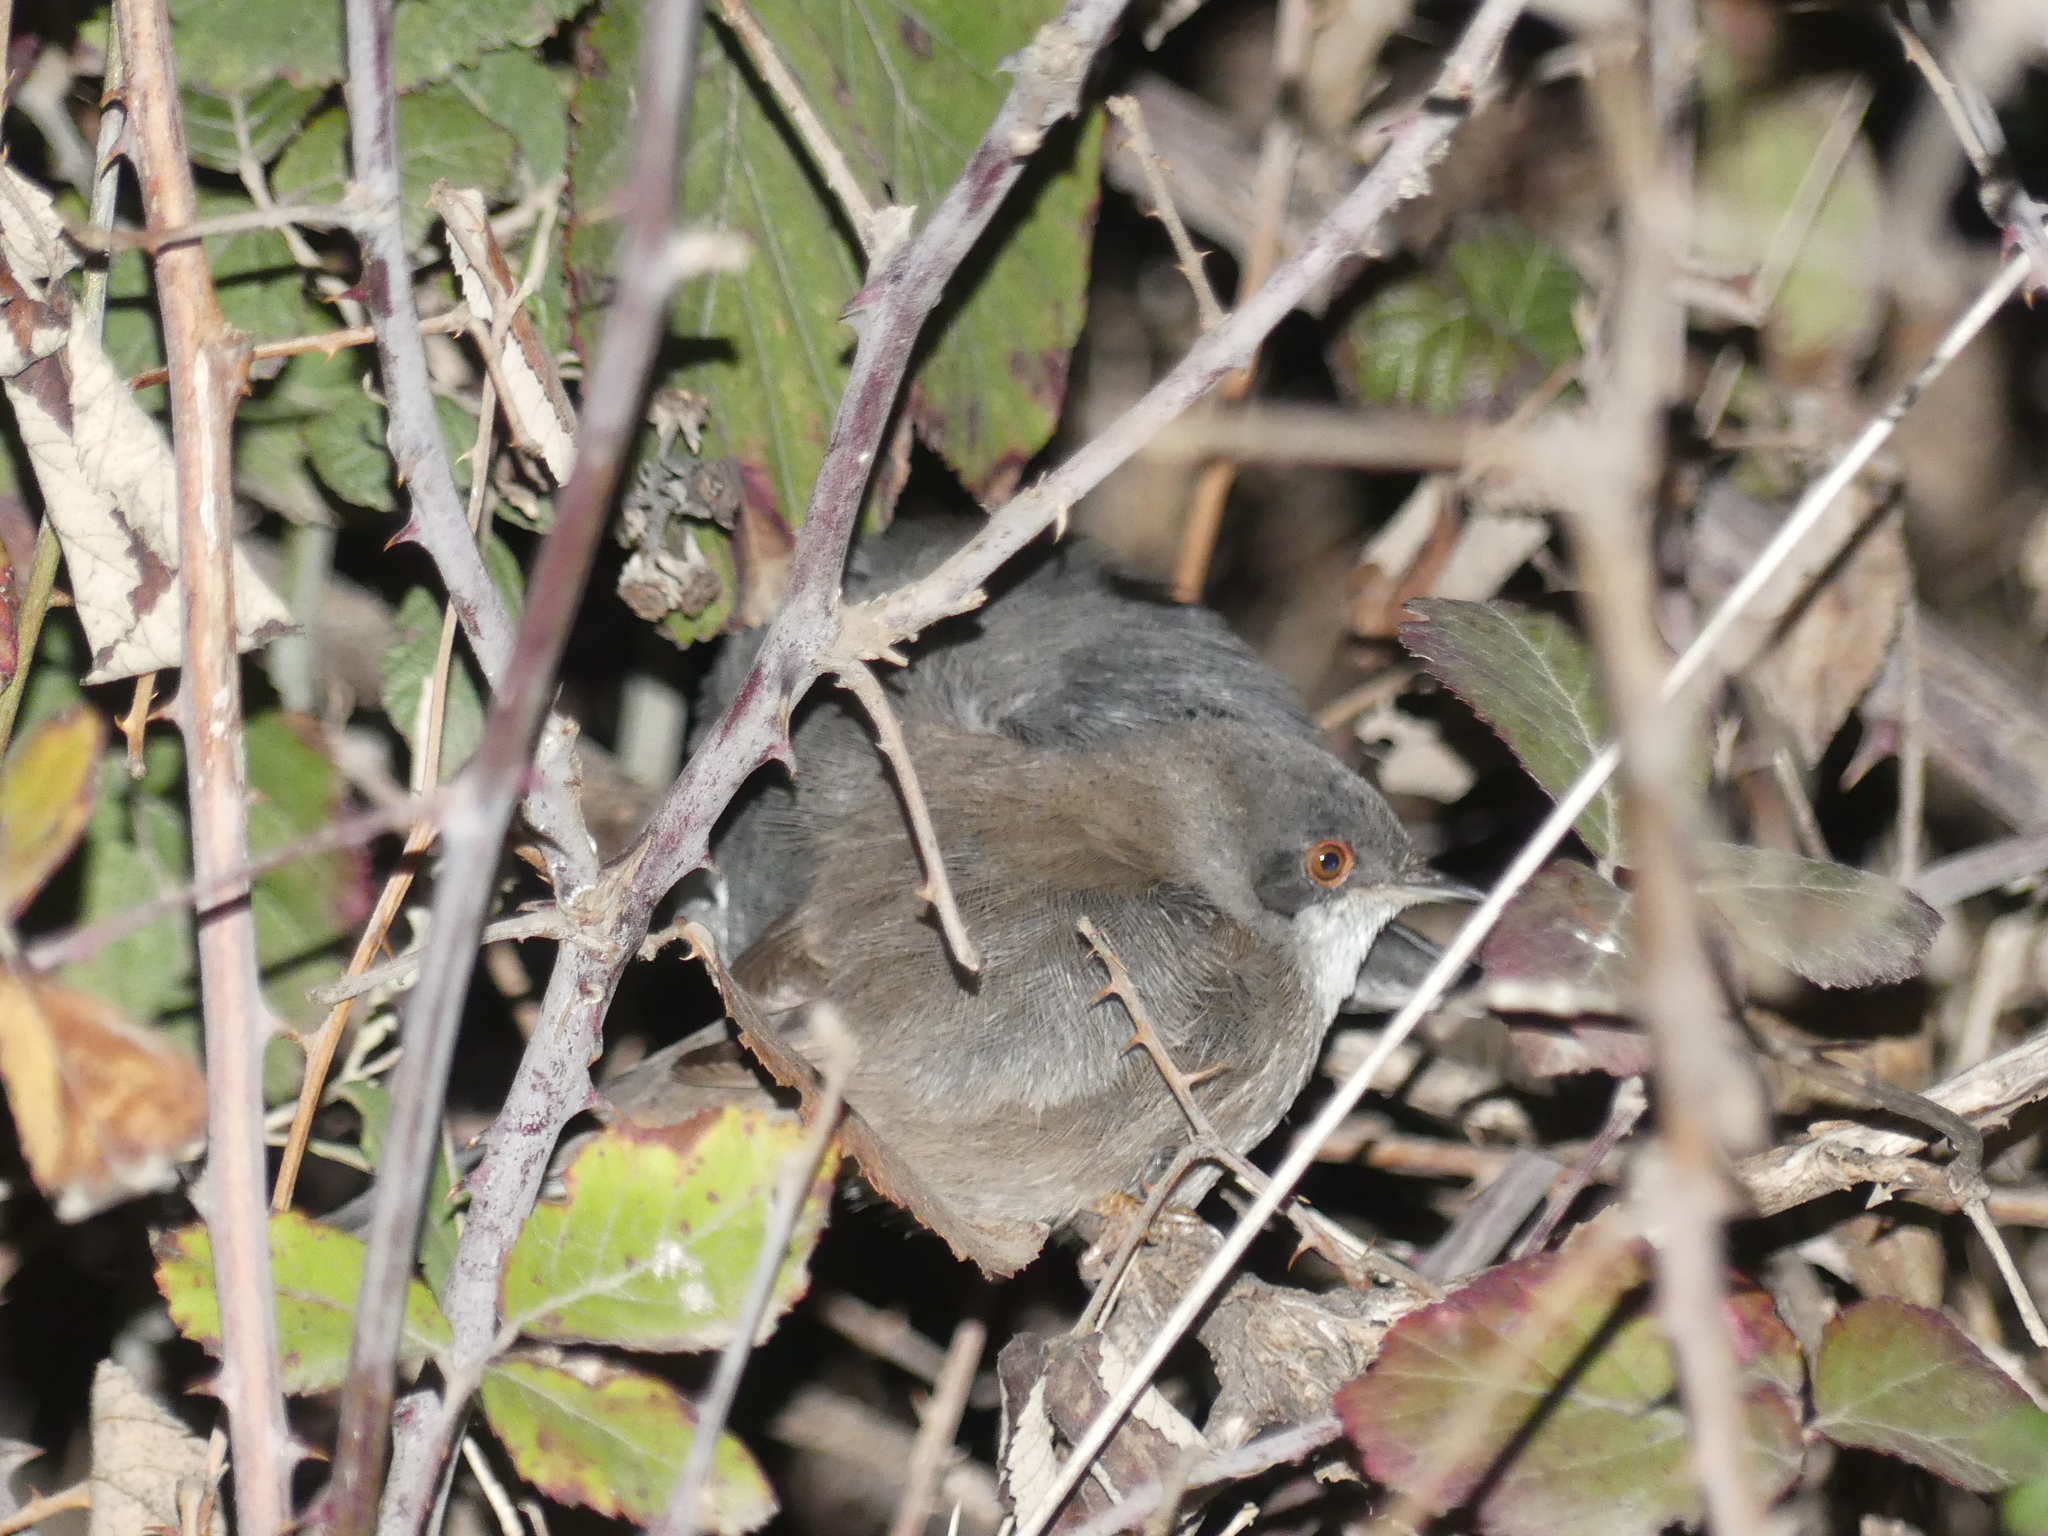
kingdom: Animalia
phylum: Chordata
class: Aves
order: Passeriformes
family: Sylviidae
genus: Curruca
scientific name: Curruca melanocephala
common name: Sardinian warbler
